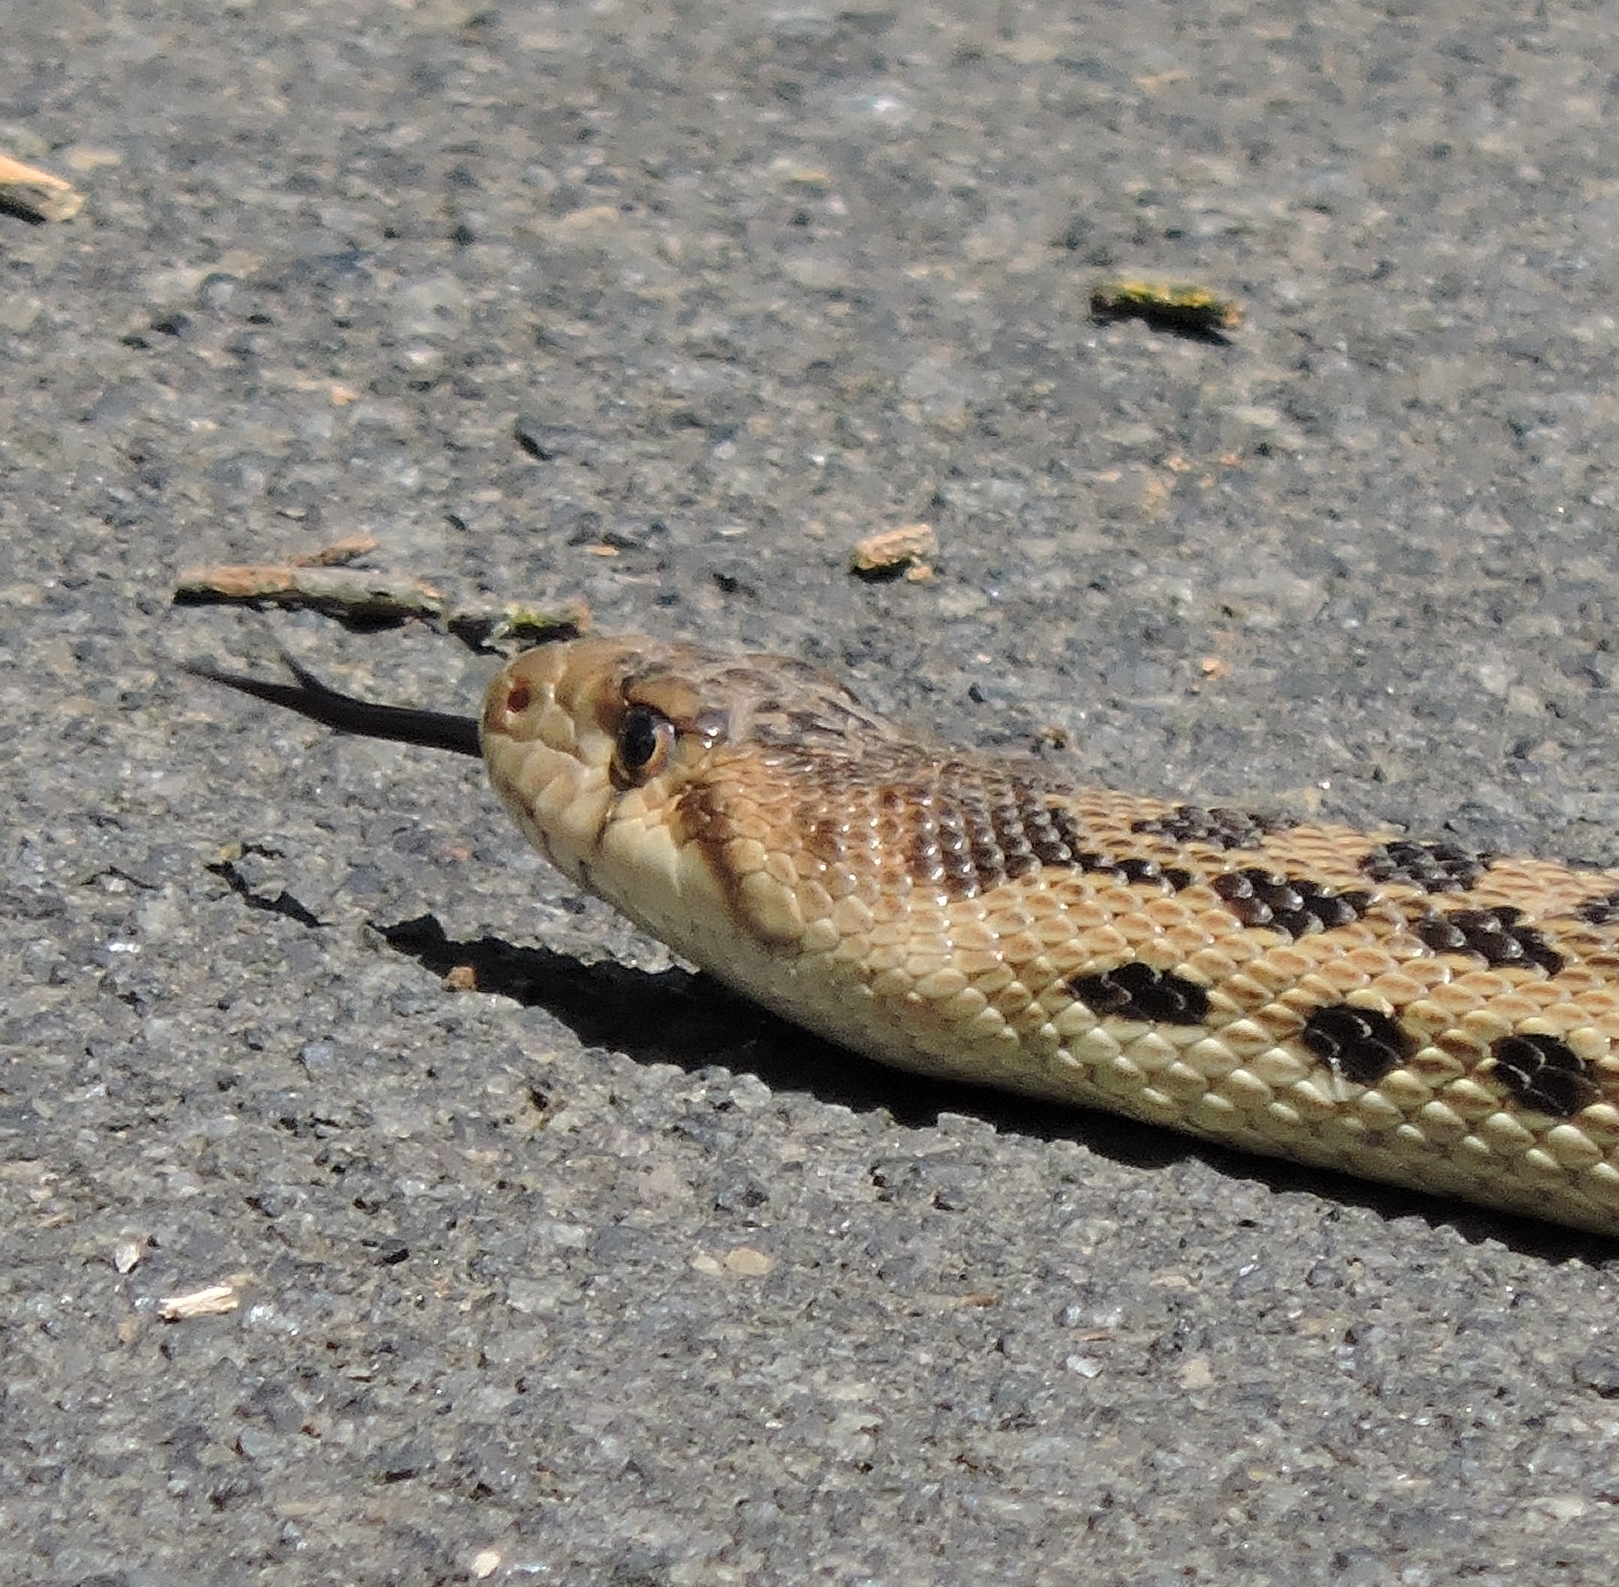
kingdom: Animalia
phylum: Chordata
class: Squamata
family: Colubridae
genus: Pituophis
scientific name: Pituophis catenifer
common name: Gopher snake
